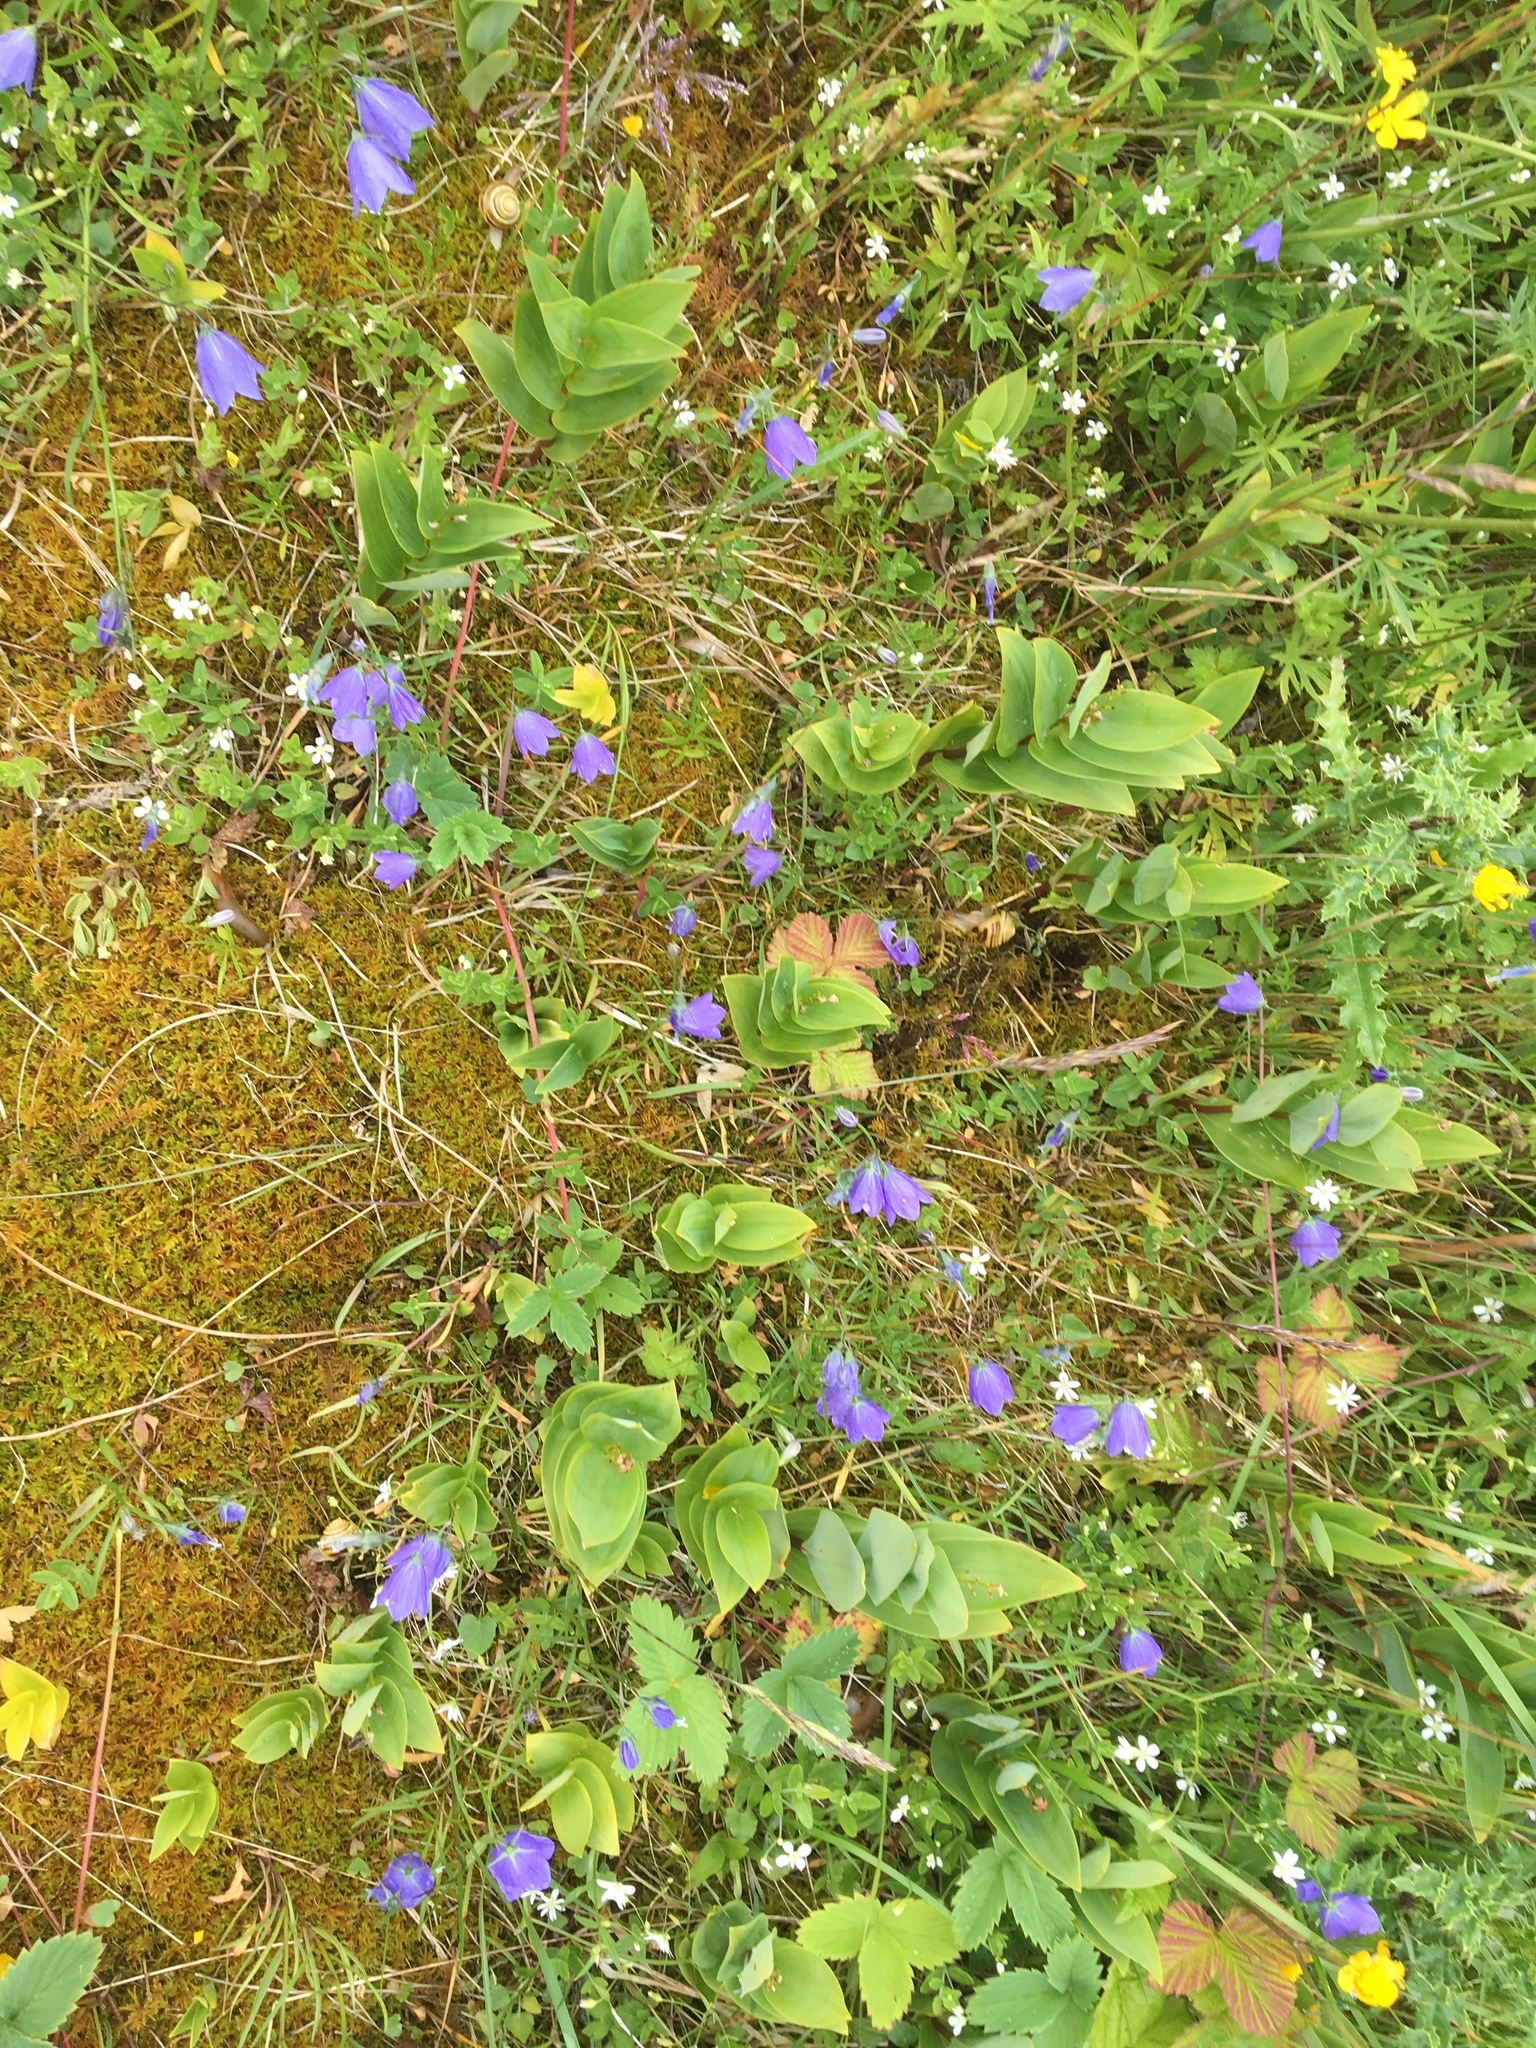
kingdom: Plantae
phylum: Tracheophyta
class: Magnoliopsida
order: Asterales
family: Campanulaceae
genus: Campanula
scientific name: Campanula giesekiana
